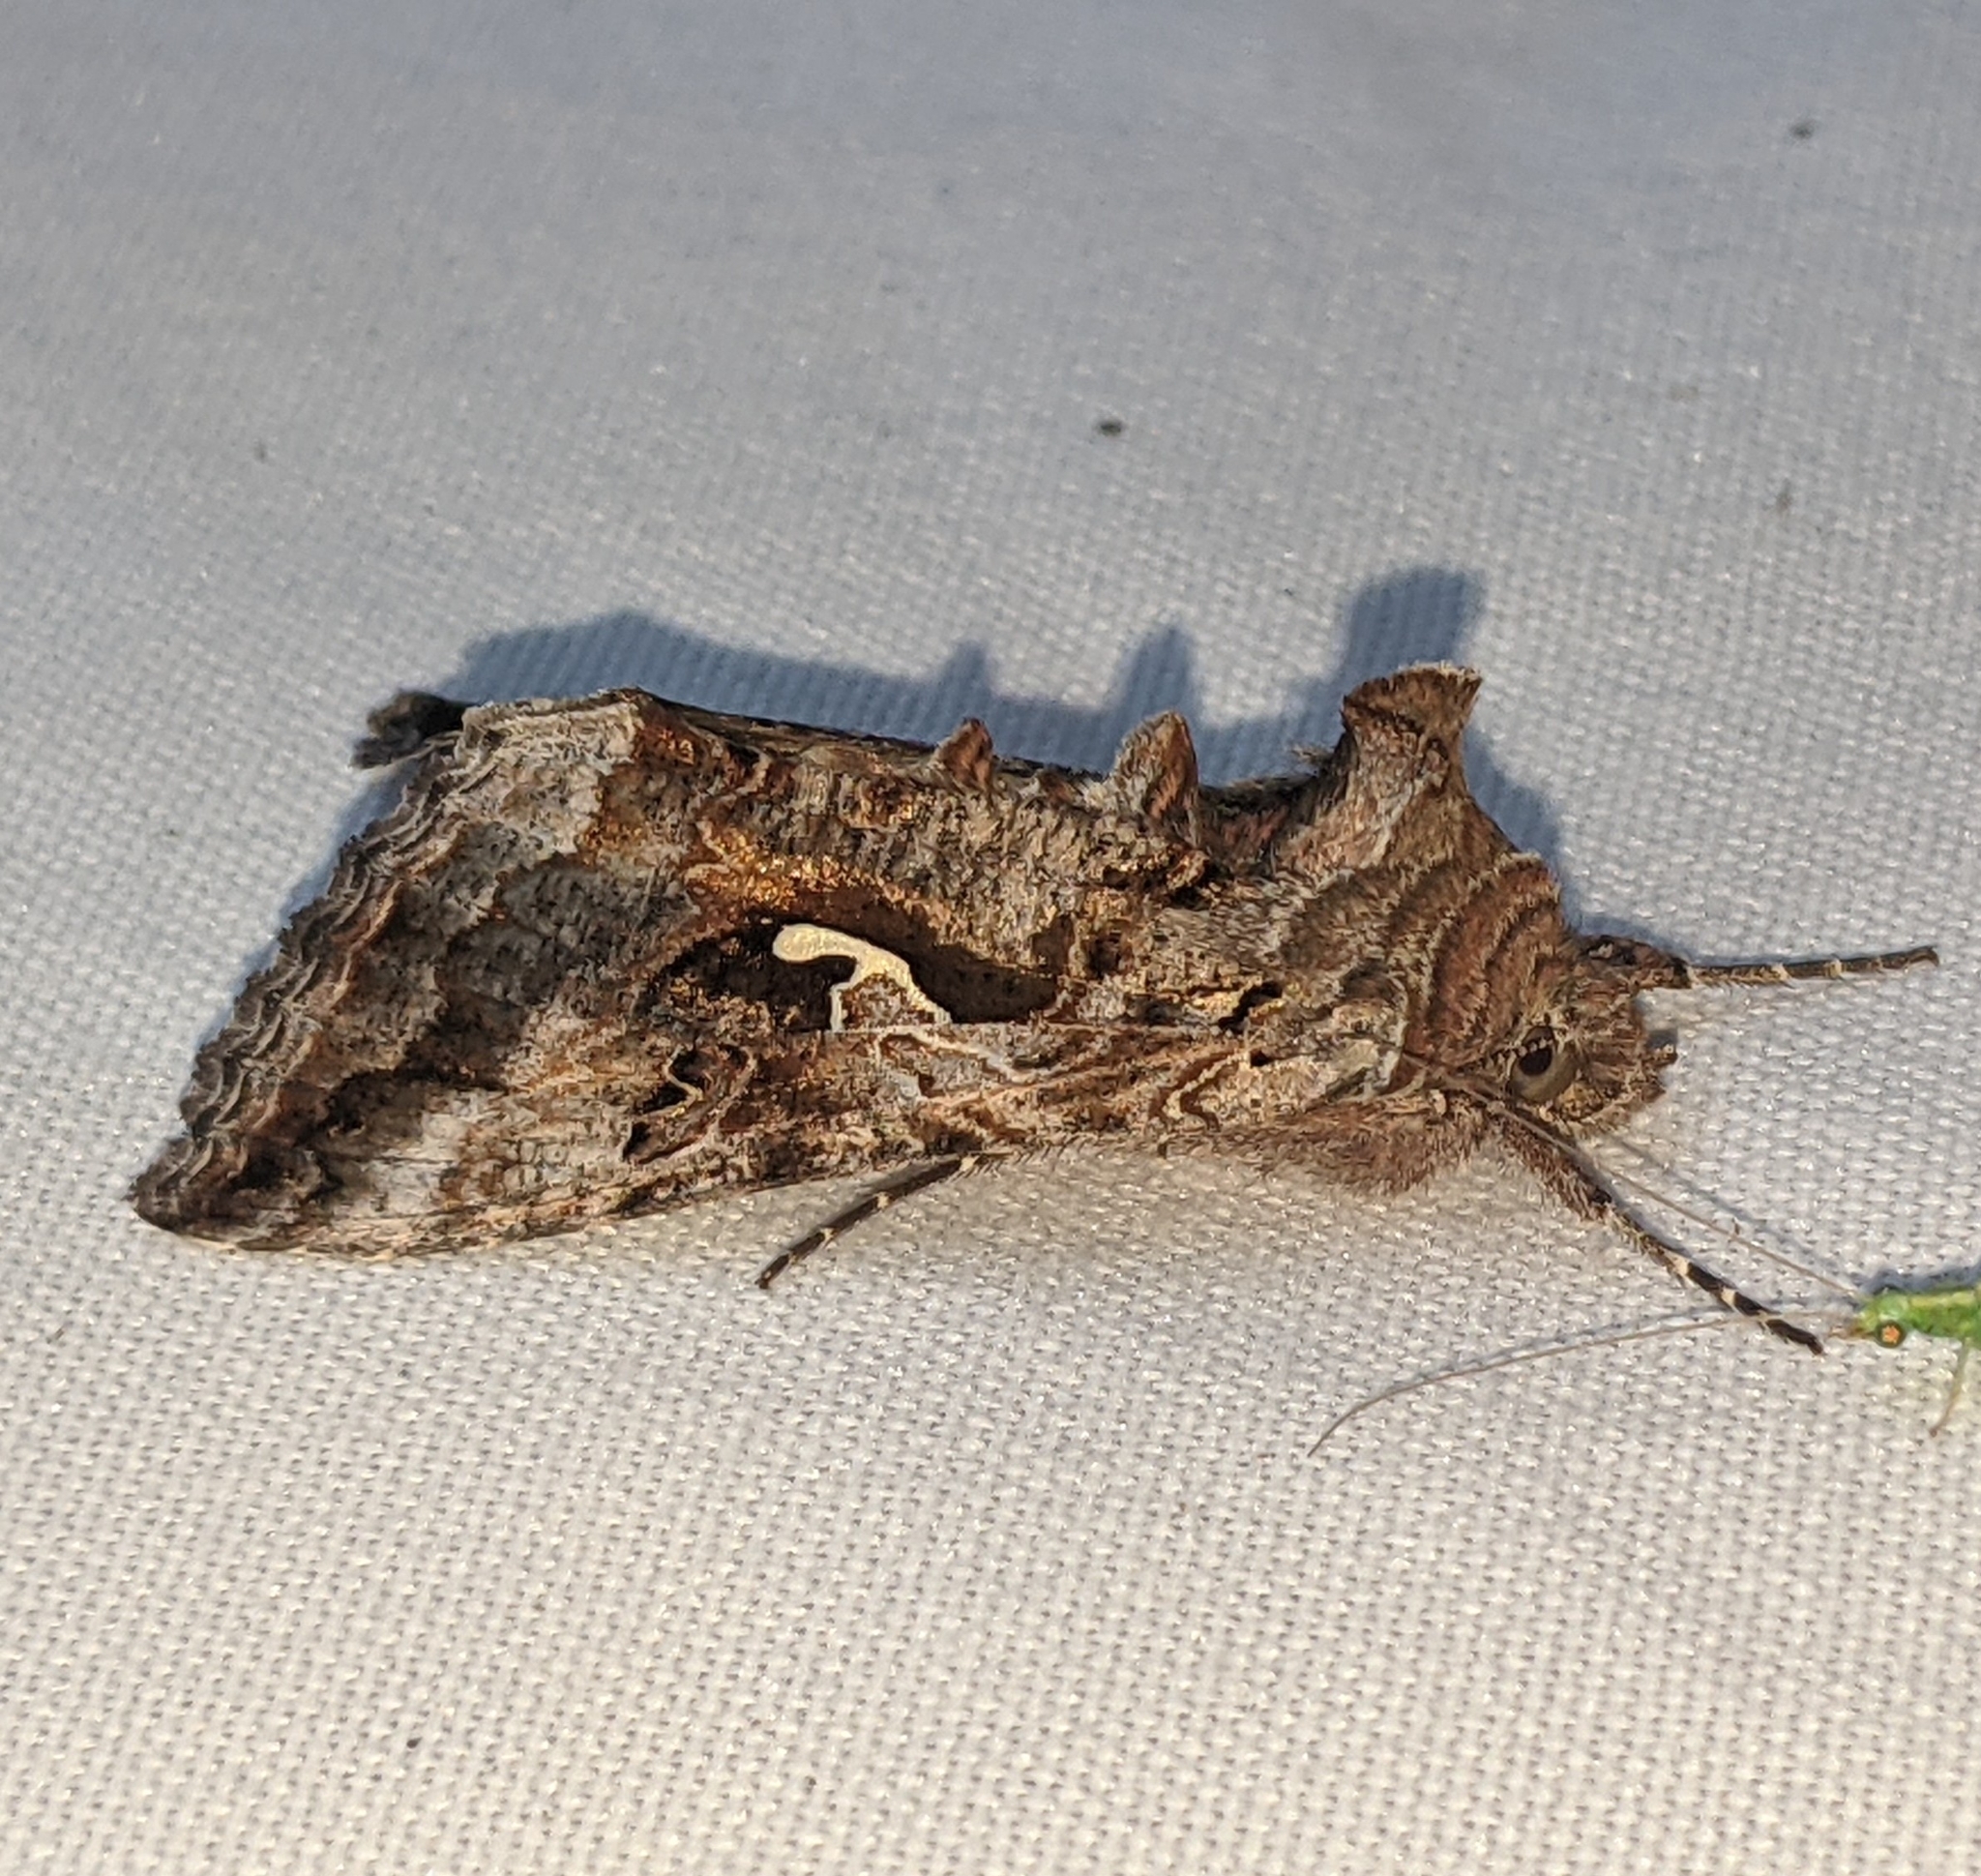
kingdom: Animalia
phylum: Arthropoda
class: Insecta
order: Lepidoptera
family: Noctuidae
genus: Autographa
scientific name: Autographa californica
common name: Alfalfa looper
